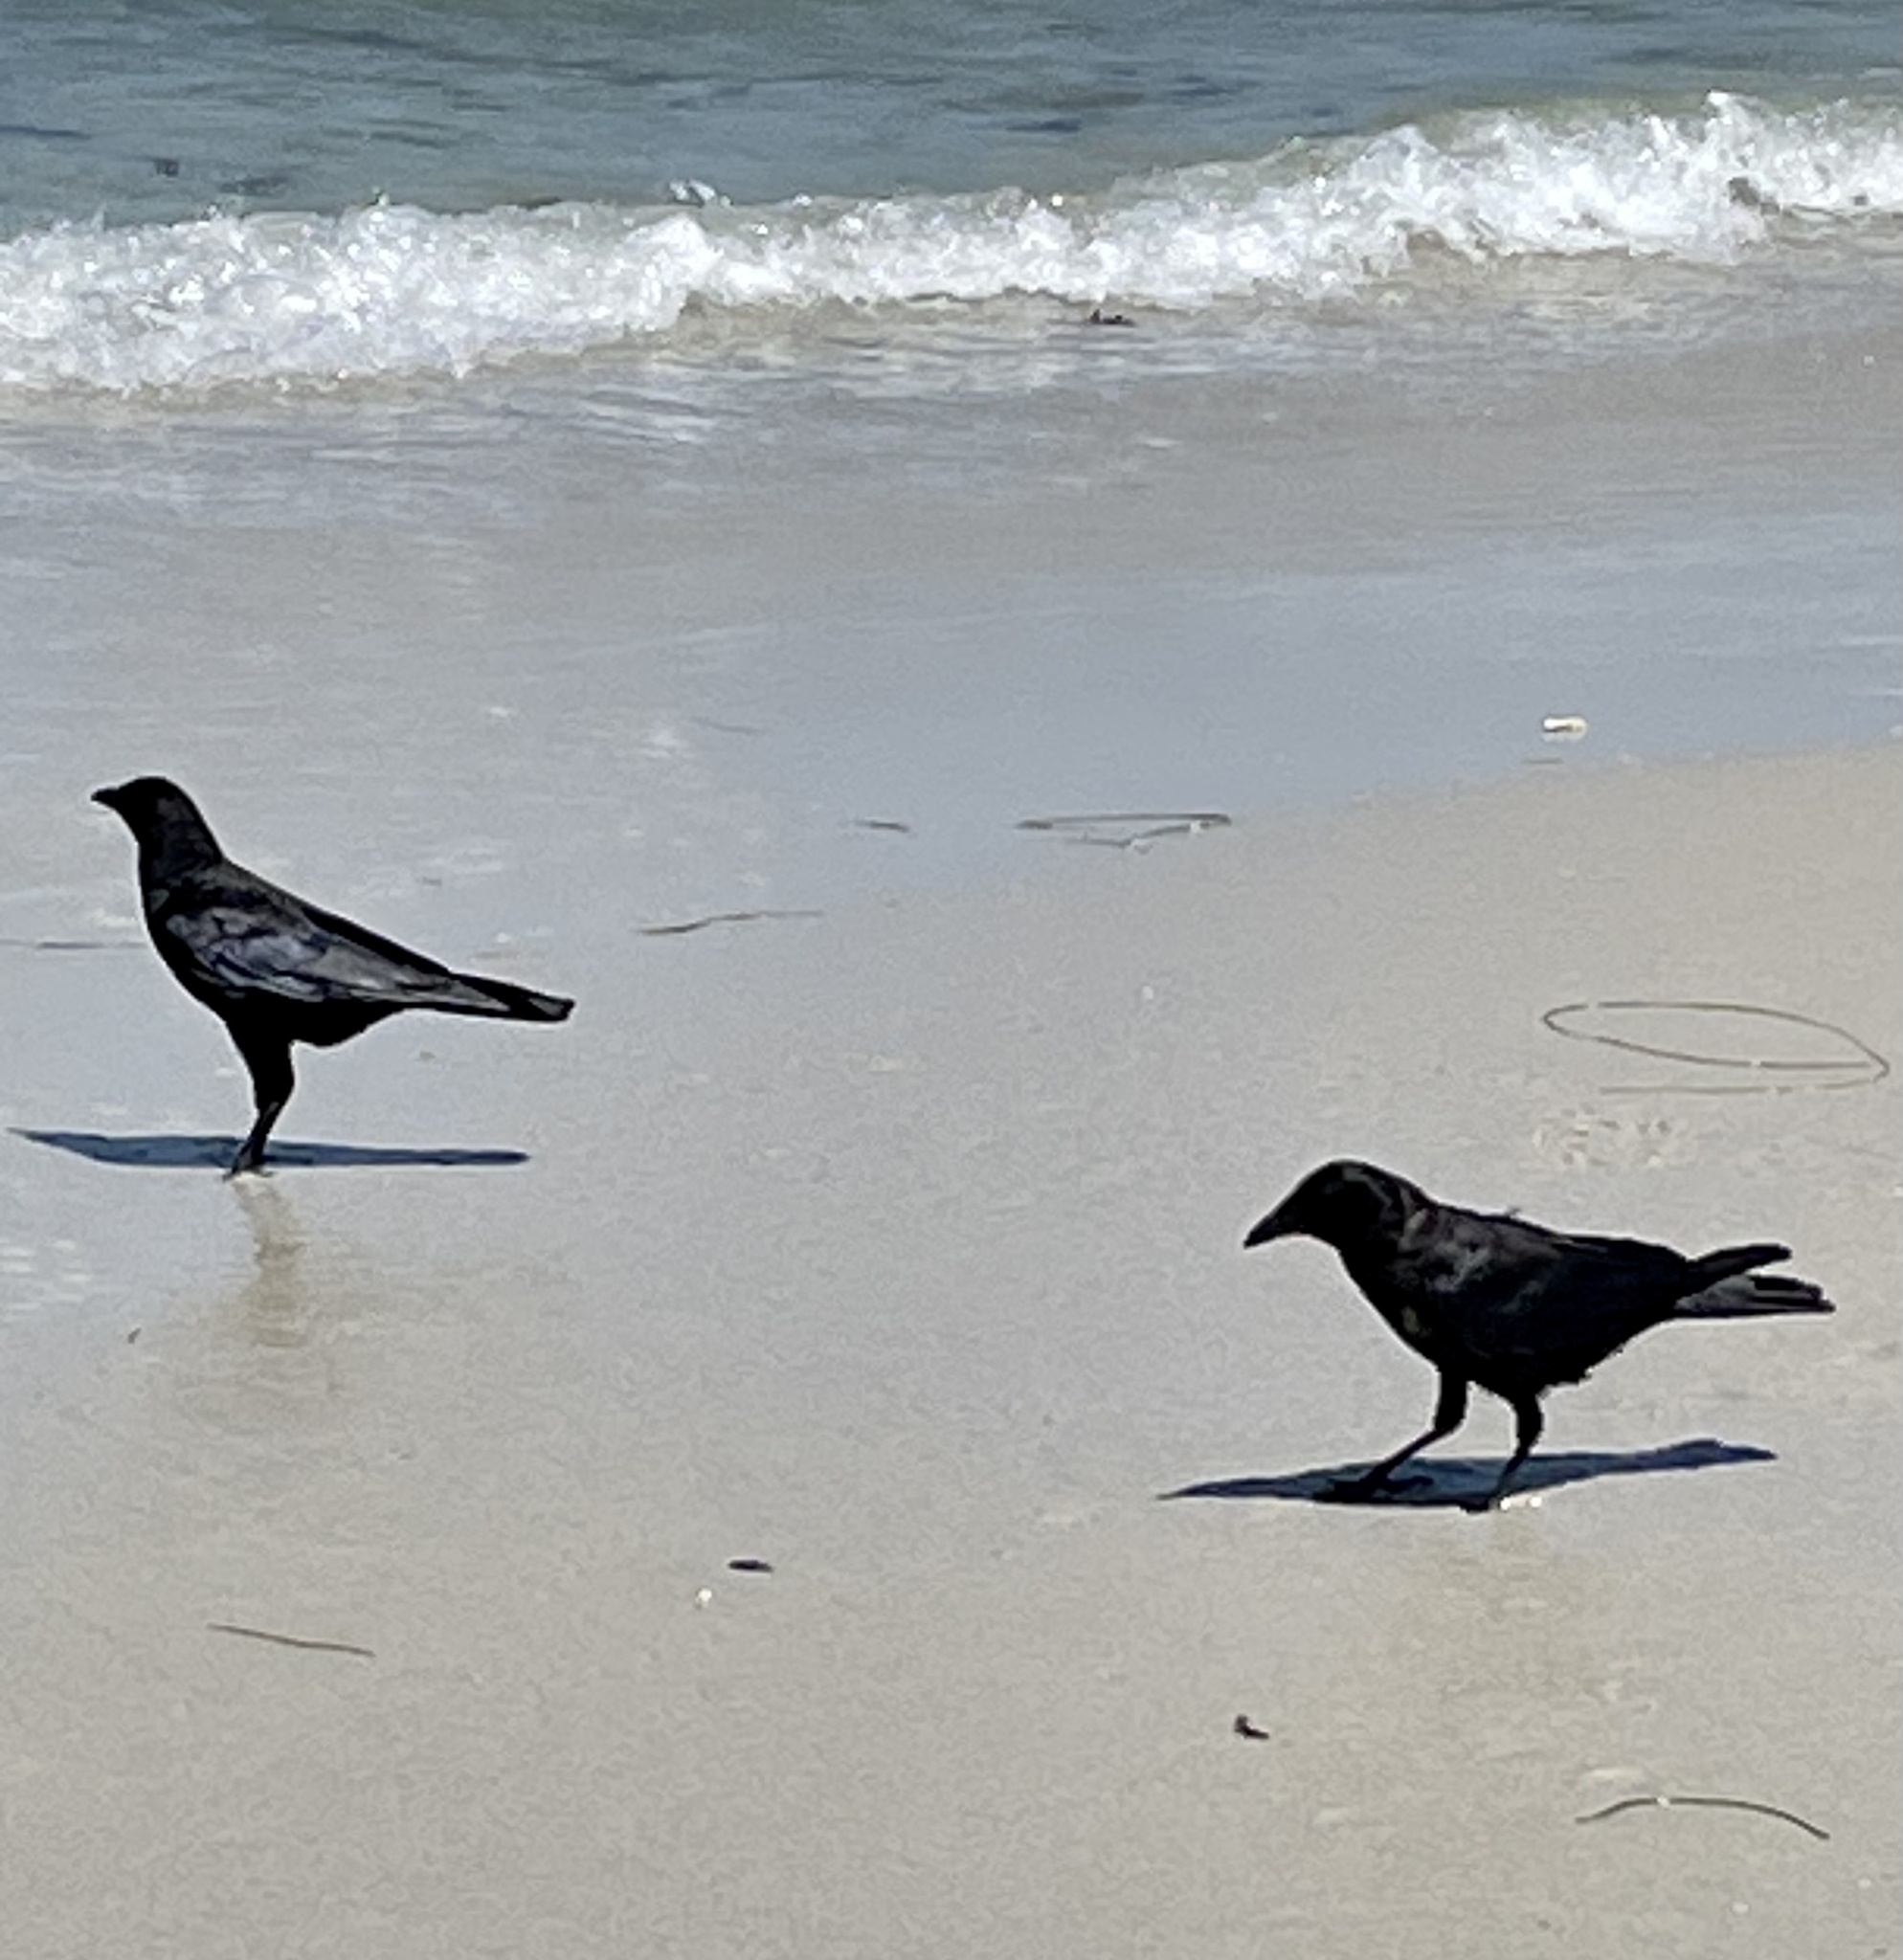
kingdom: Animalia
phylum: Chordata
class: Aves
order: Passeriformes
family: Corvidae
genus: Corvus
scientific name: Corvus brachyrhynchos
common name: American crow
